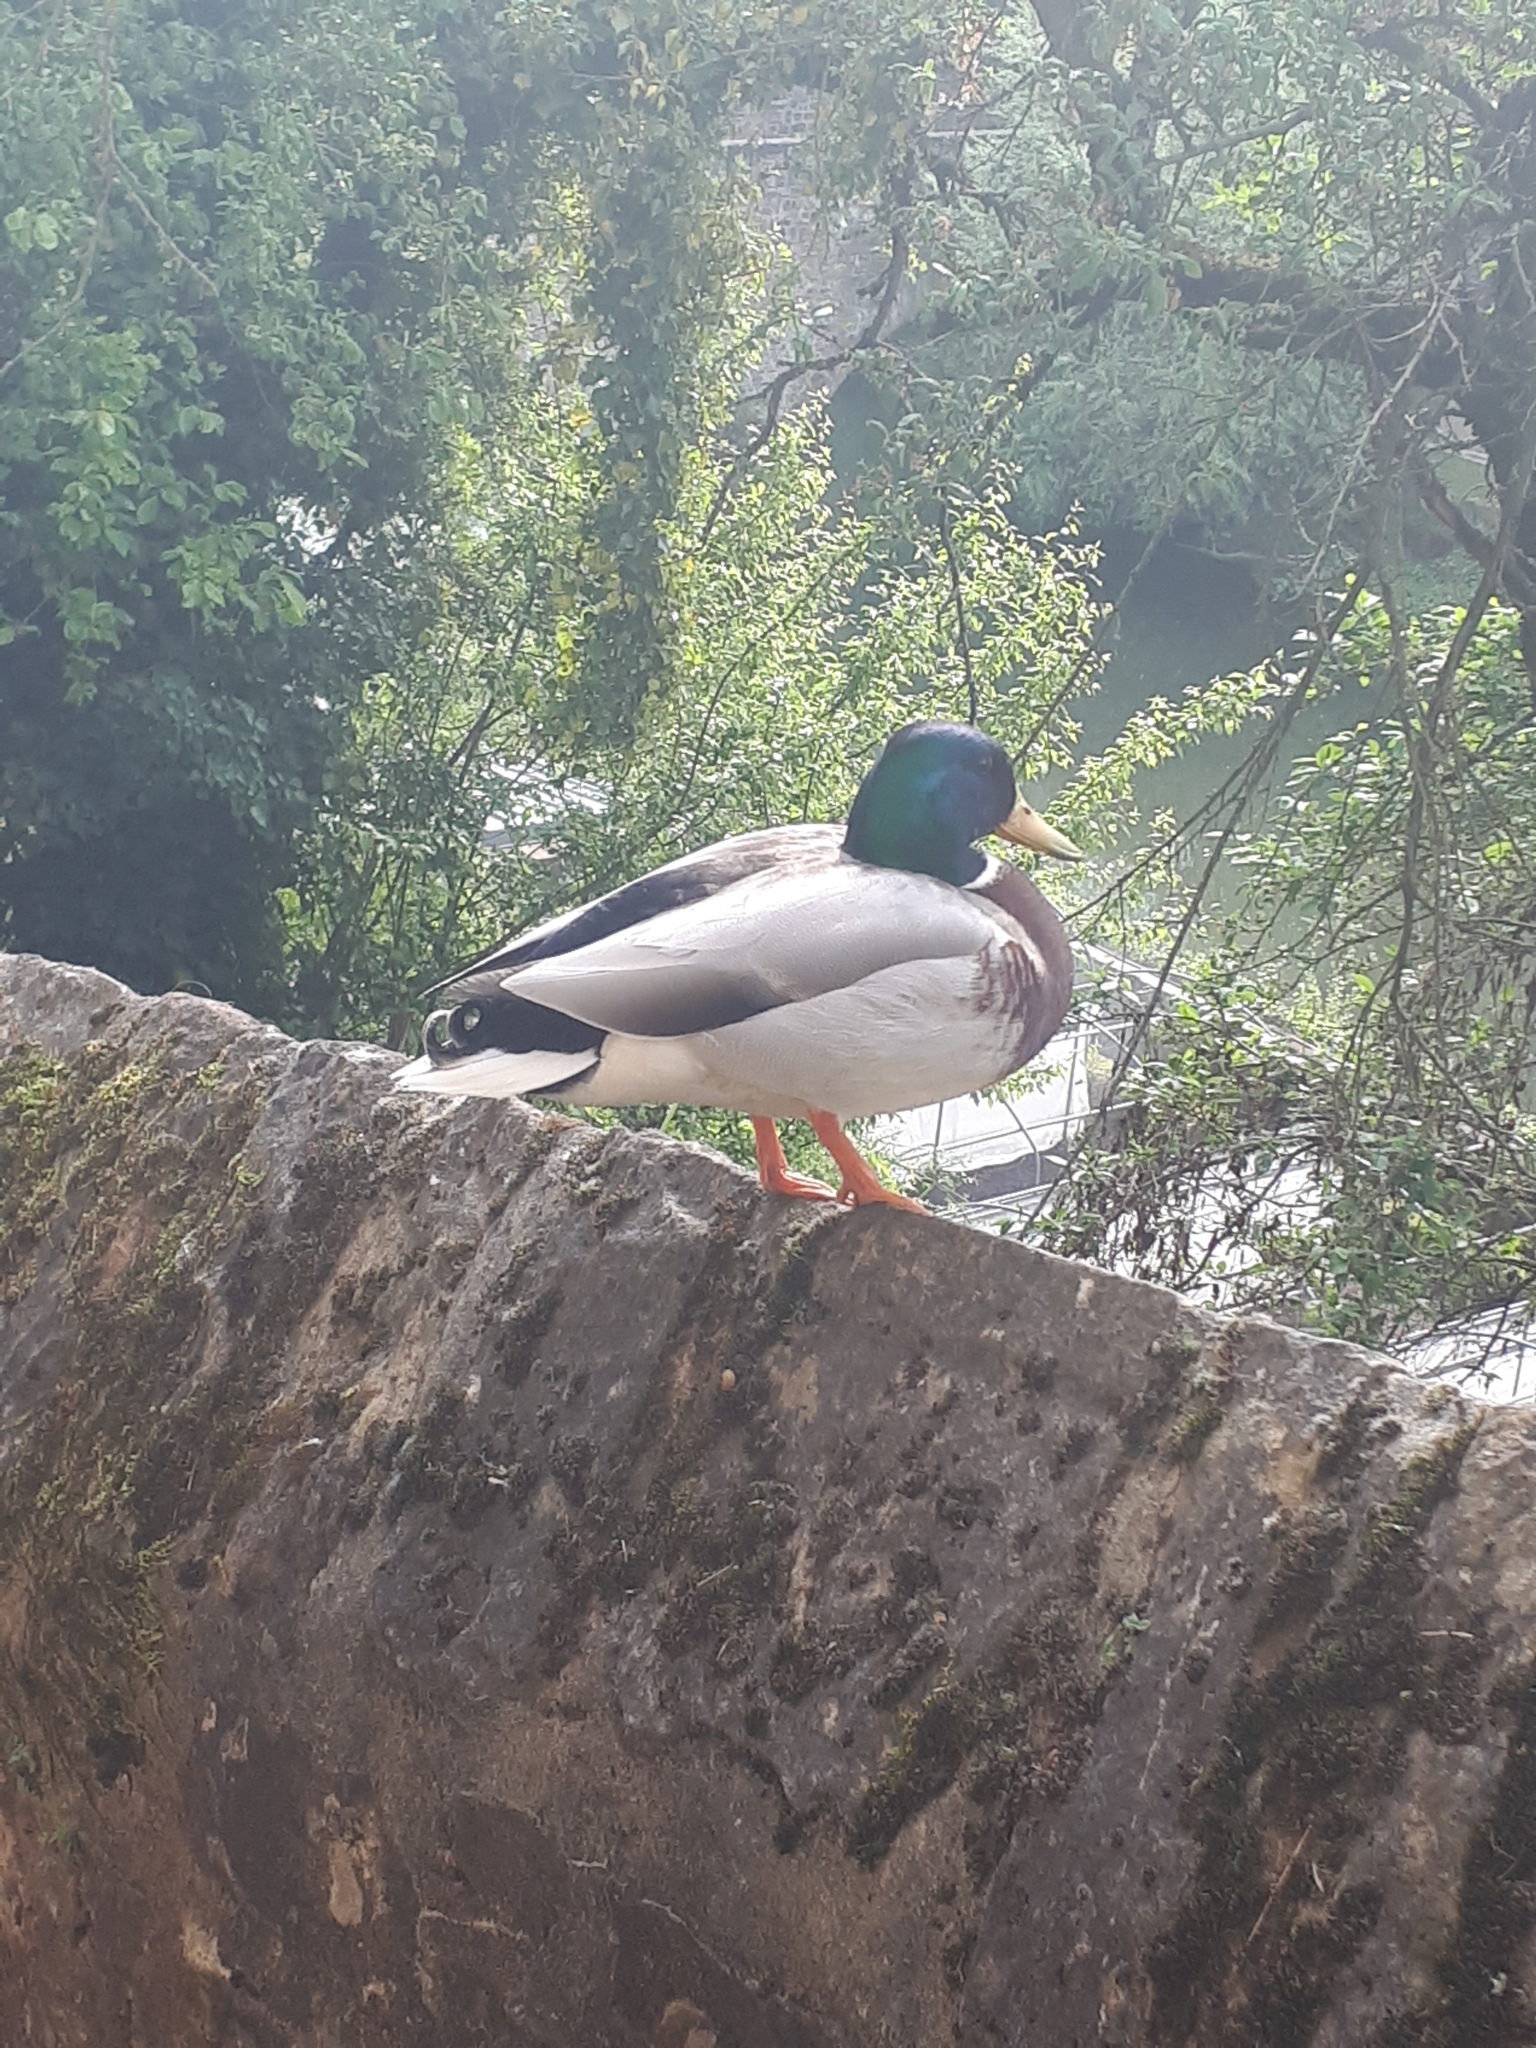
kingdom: Animalia
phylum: Chordata
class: Aves
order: Anseriformes
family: Anatidae
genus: Anas
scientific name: Anas platyrhynchos
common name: Mallard
